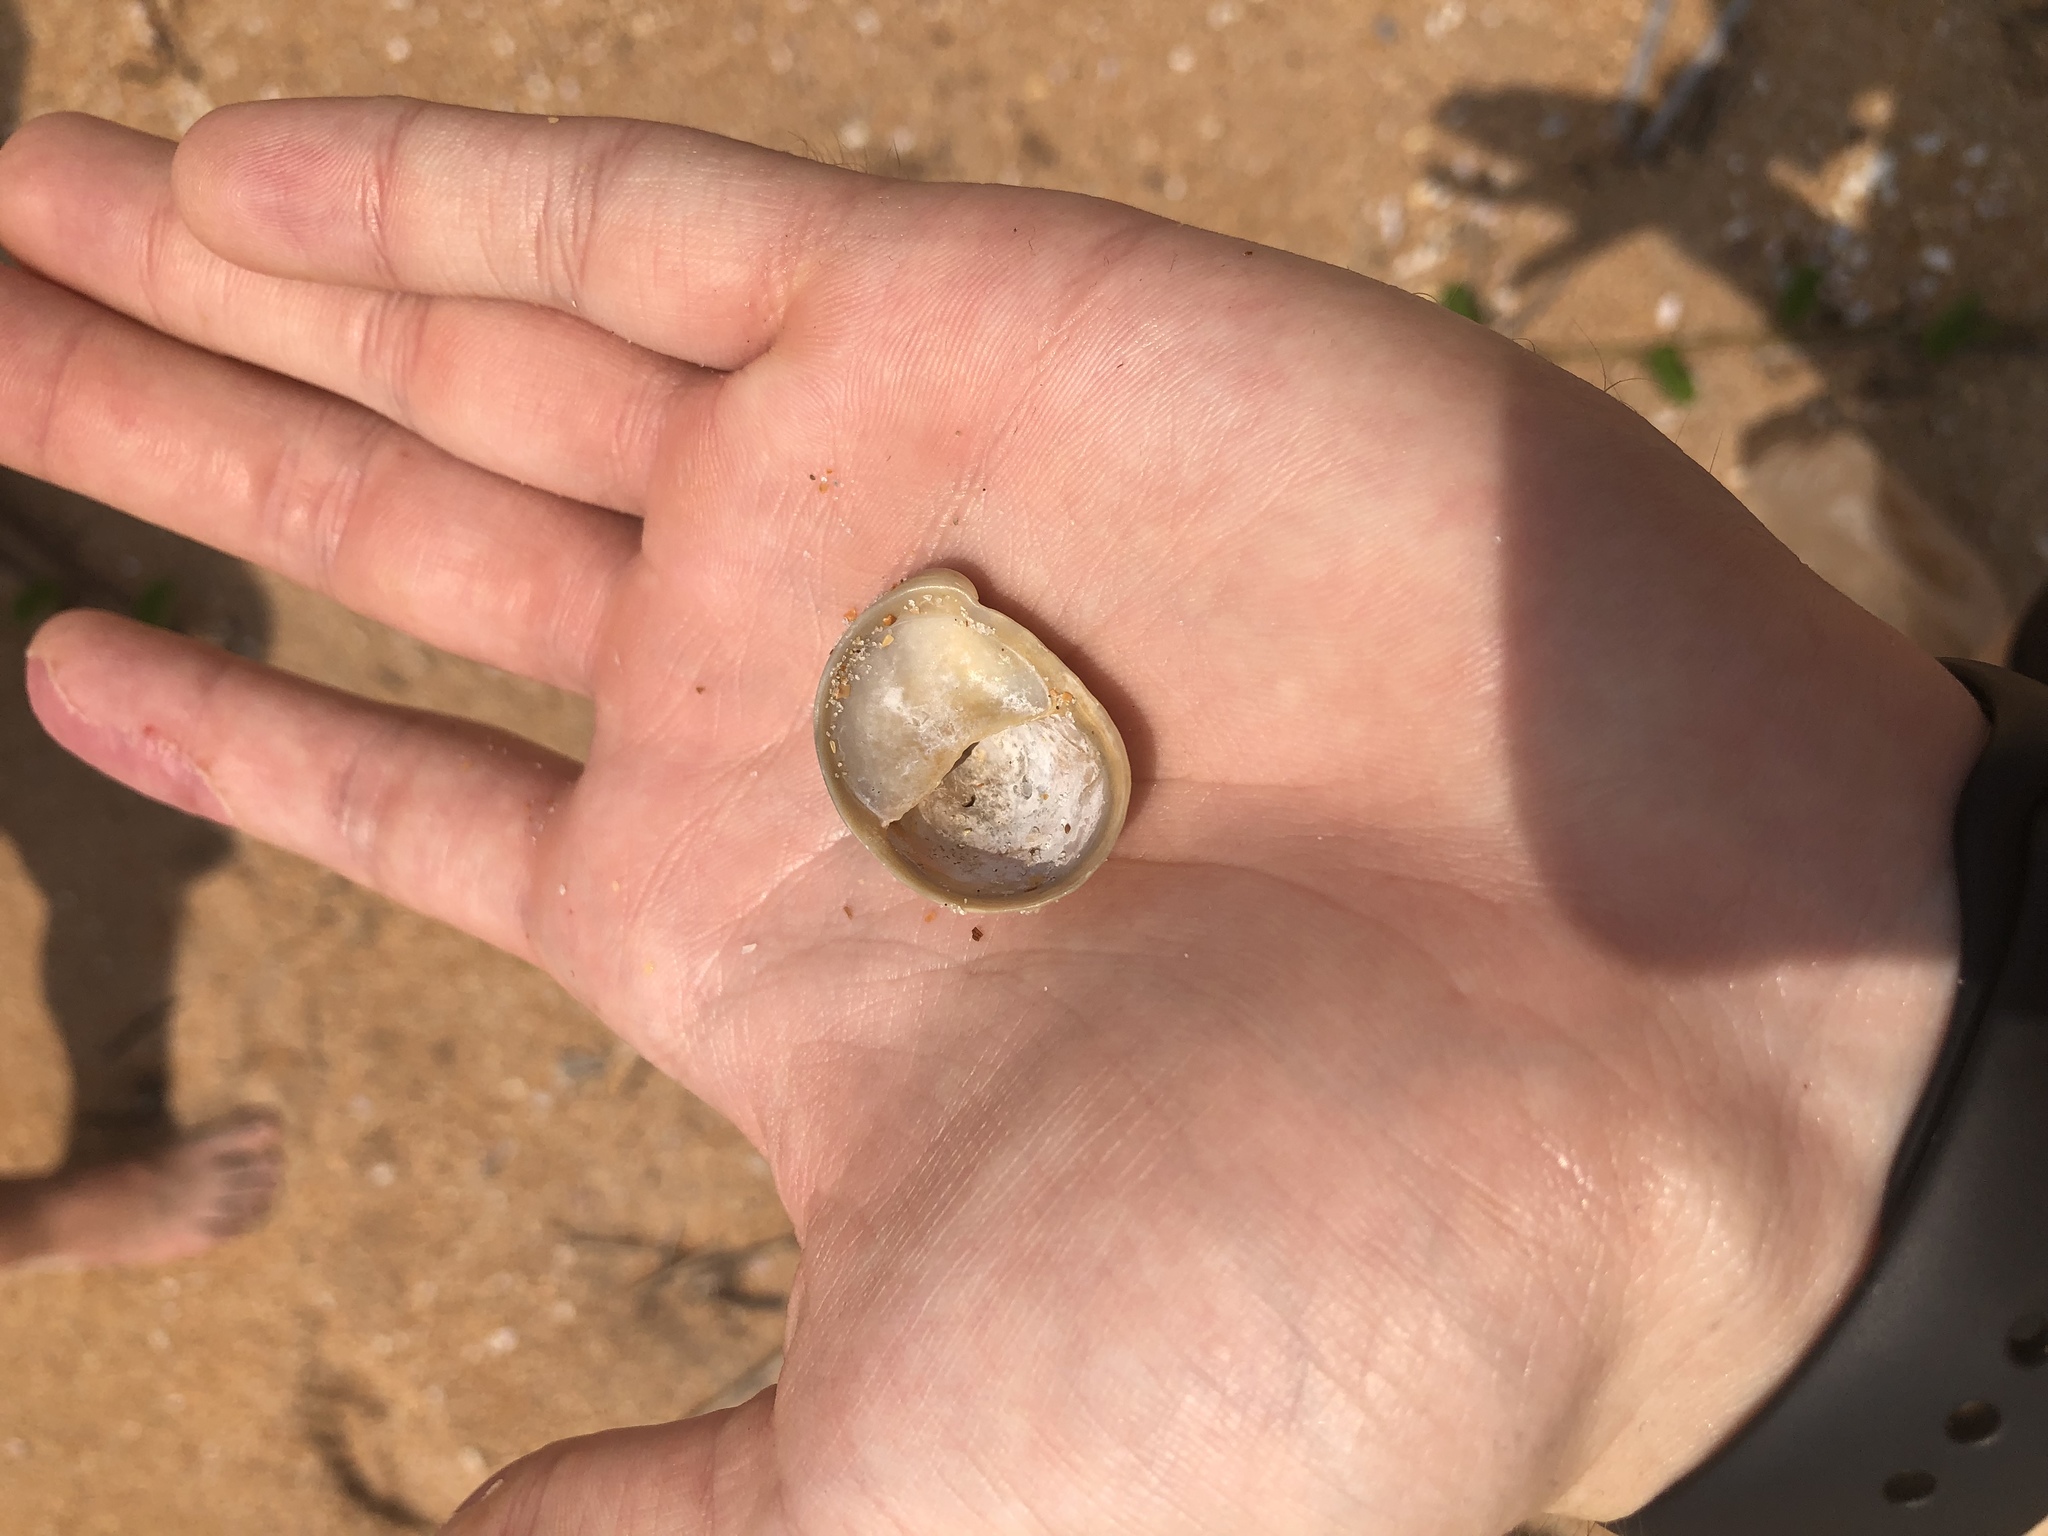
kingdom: Animalia
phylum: Mollusca
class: Gastropoda
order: Littorinimorpha
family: Calyptraeidae
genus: Crepidula
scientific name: Crepidula fornicata
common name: Slipper limpet
